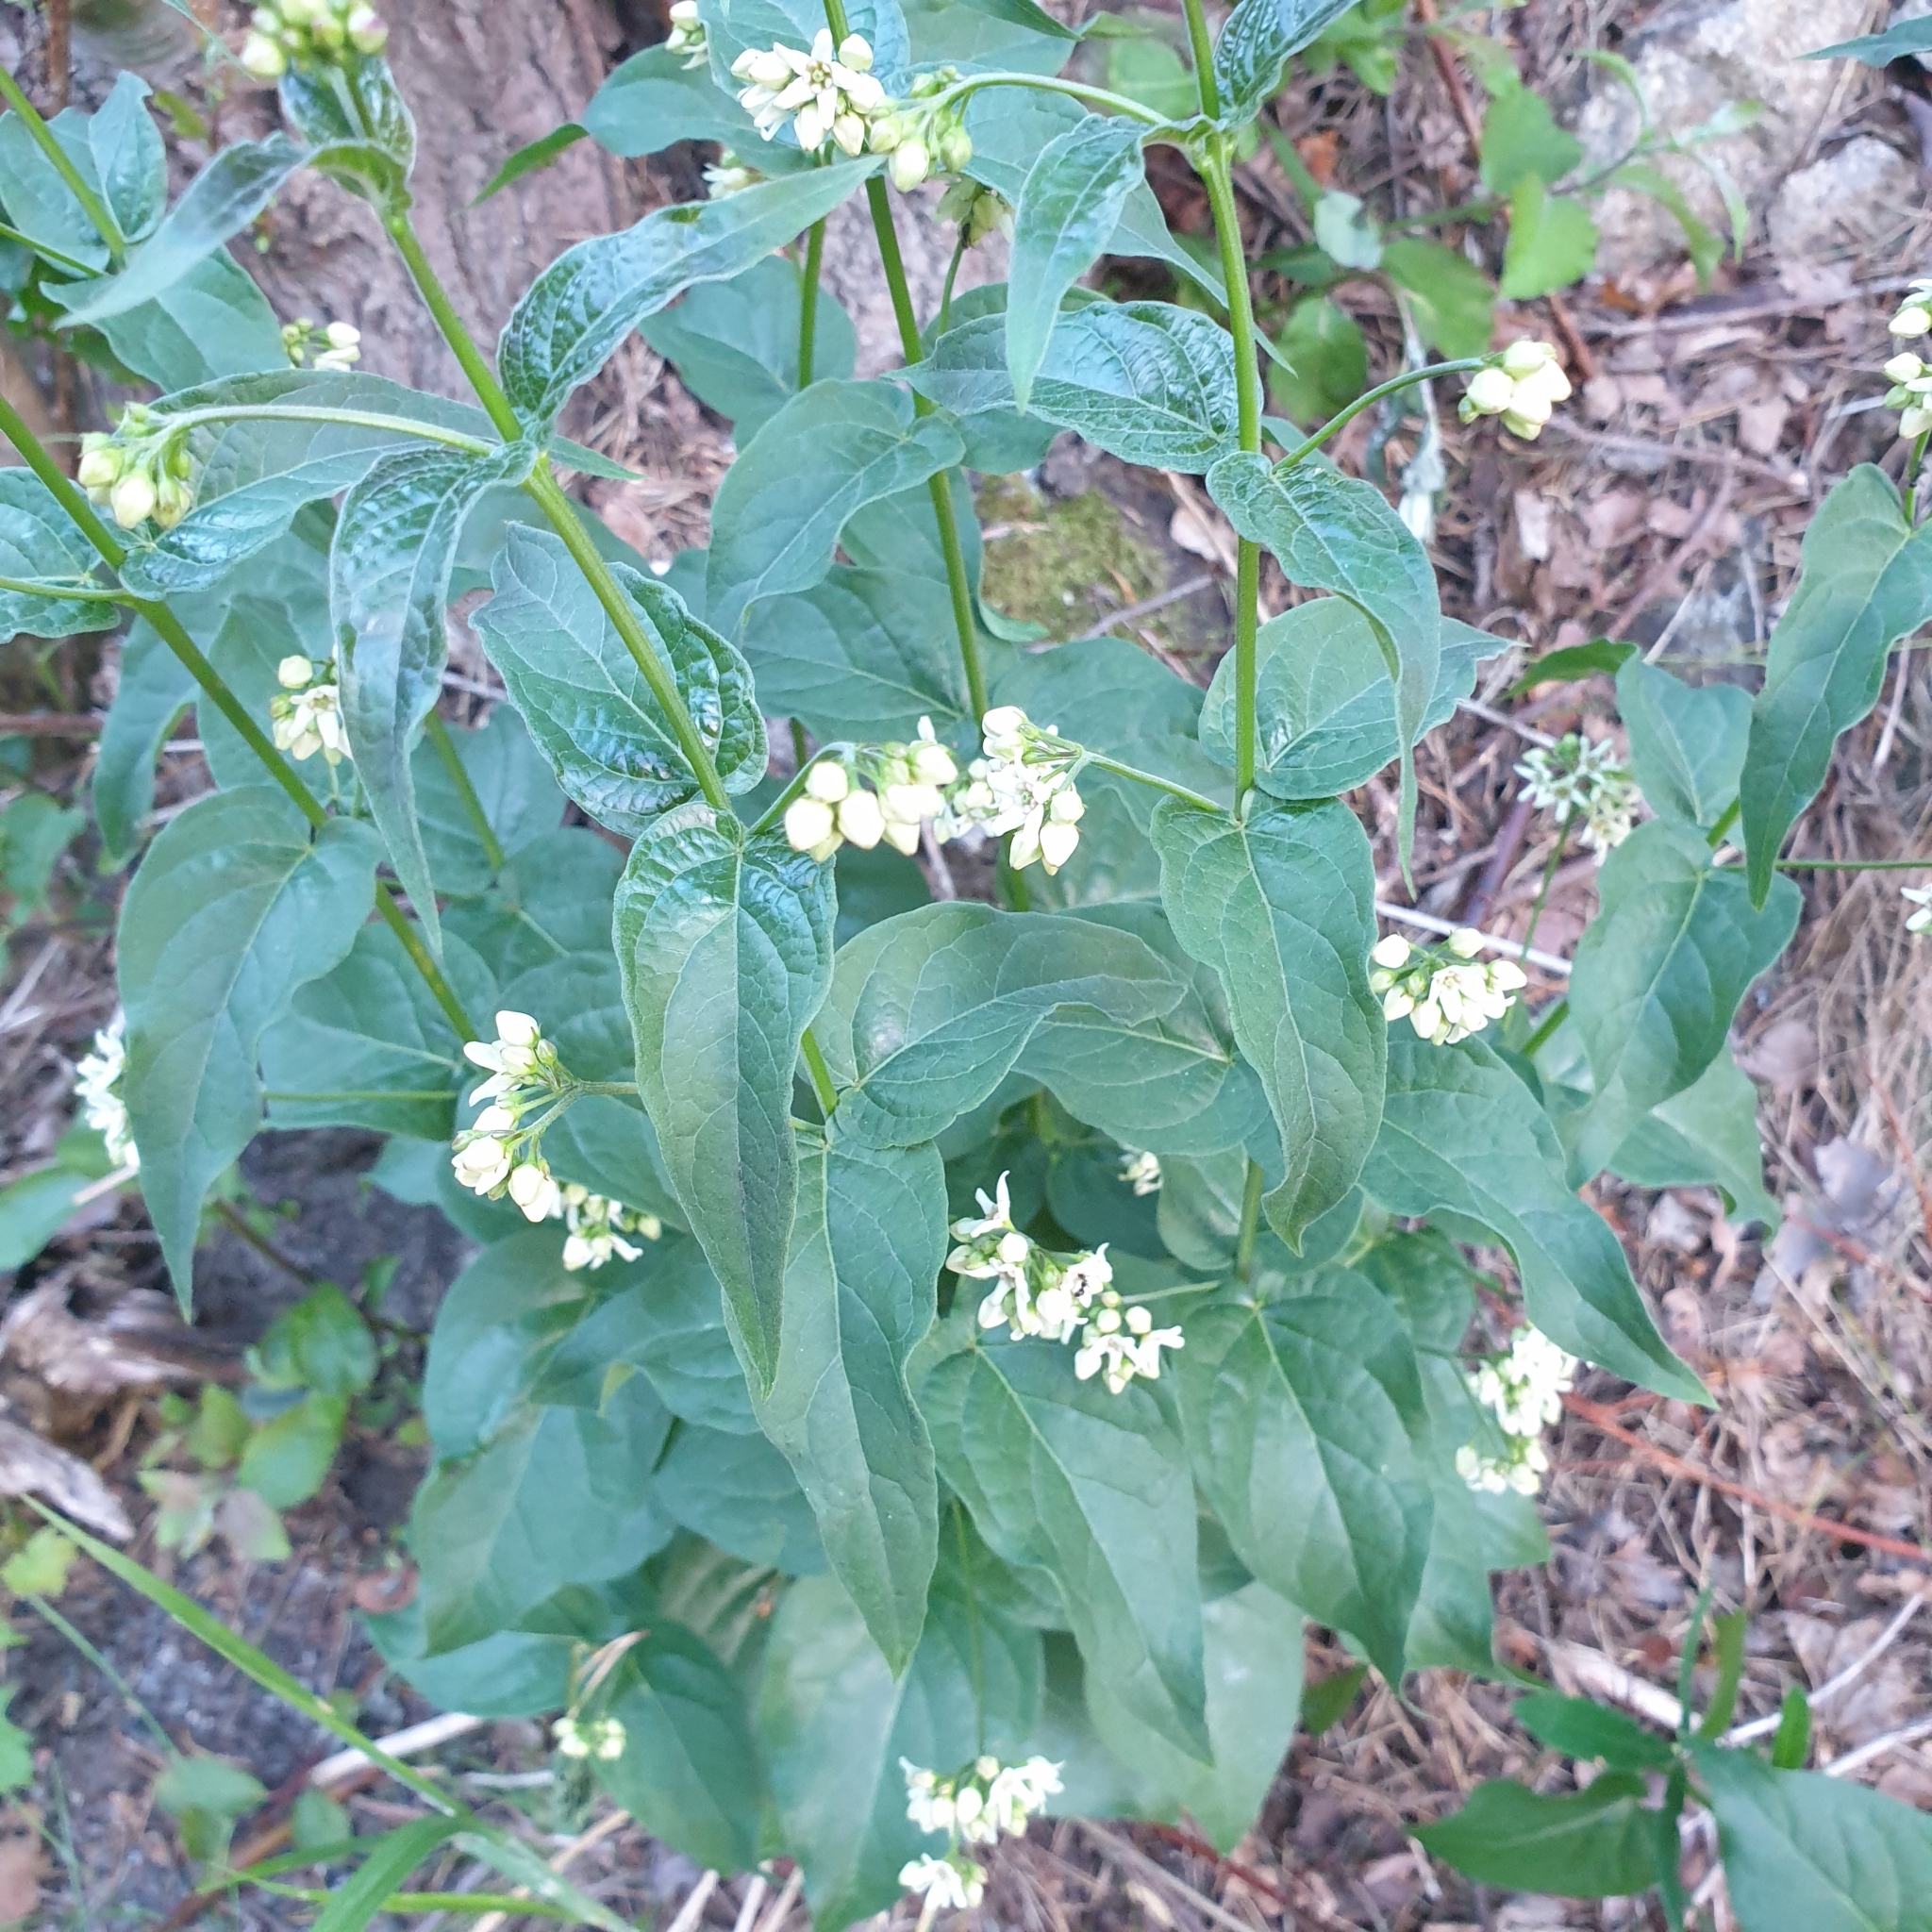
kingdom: Plantae
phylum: Tracheophyta
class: Magnoliopsida
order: Gentianales
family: Apocynaceae
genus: Vincetoxicum
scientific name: Vincetoxicum hirundinaria
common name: White swallowwort
